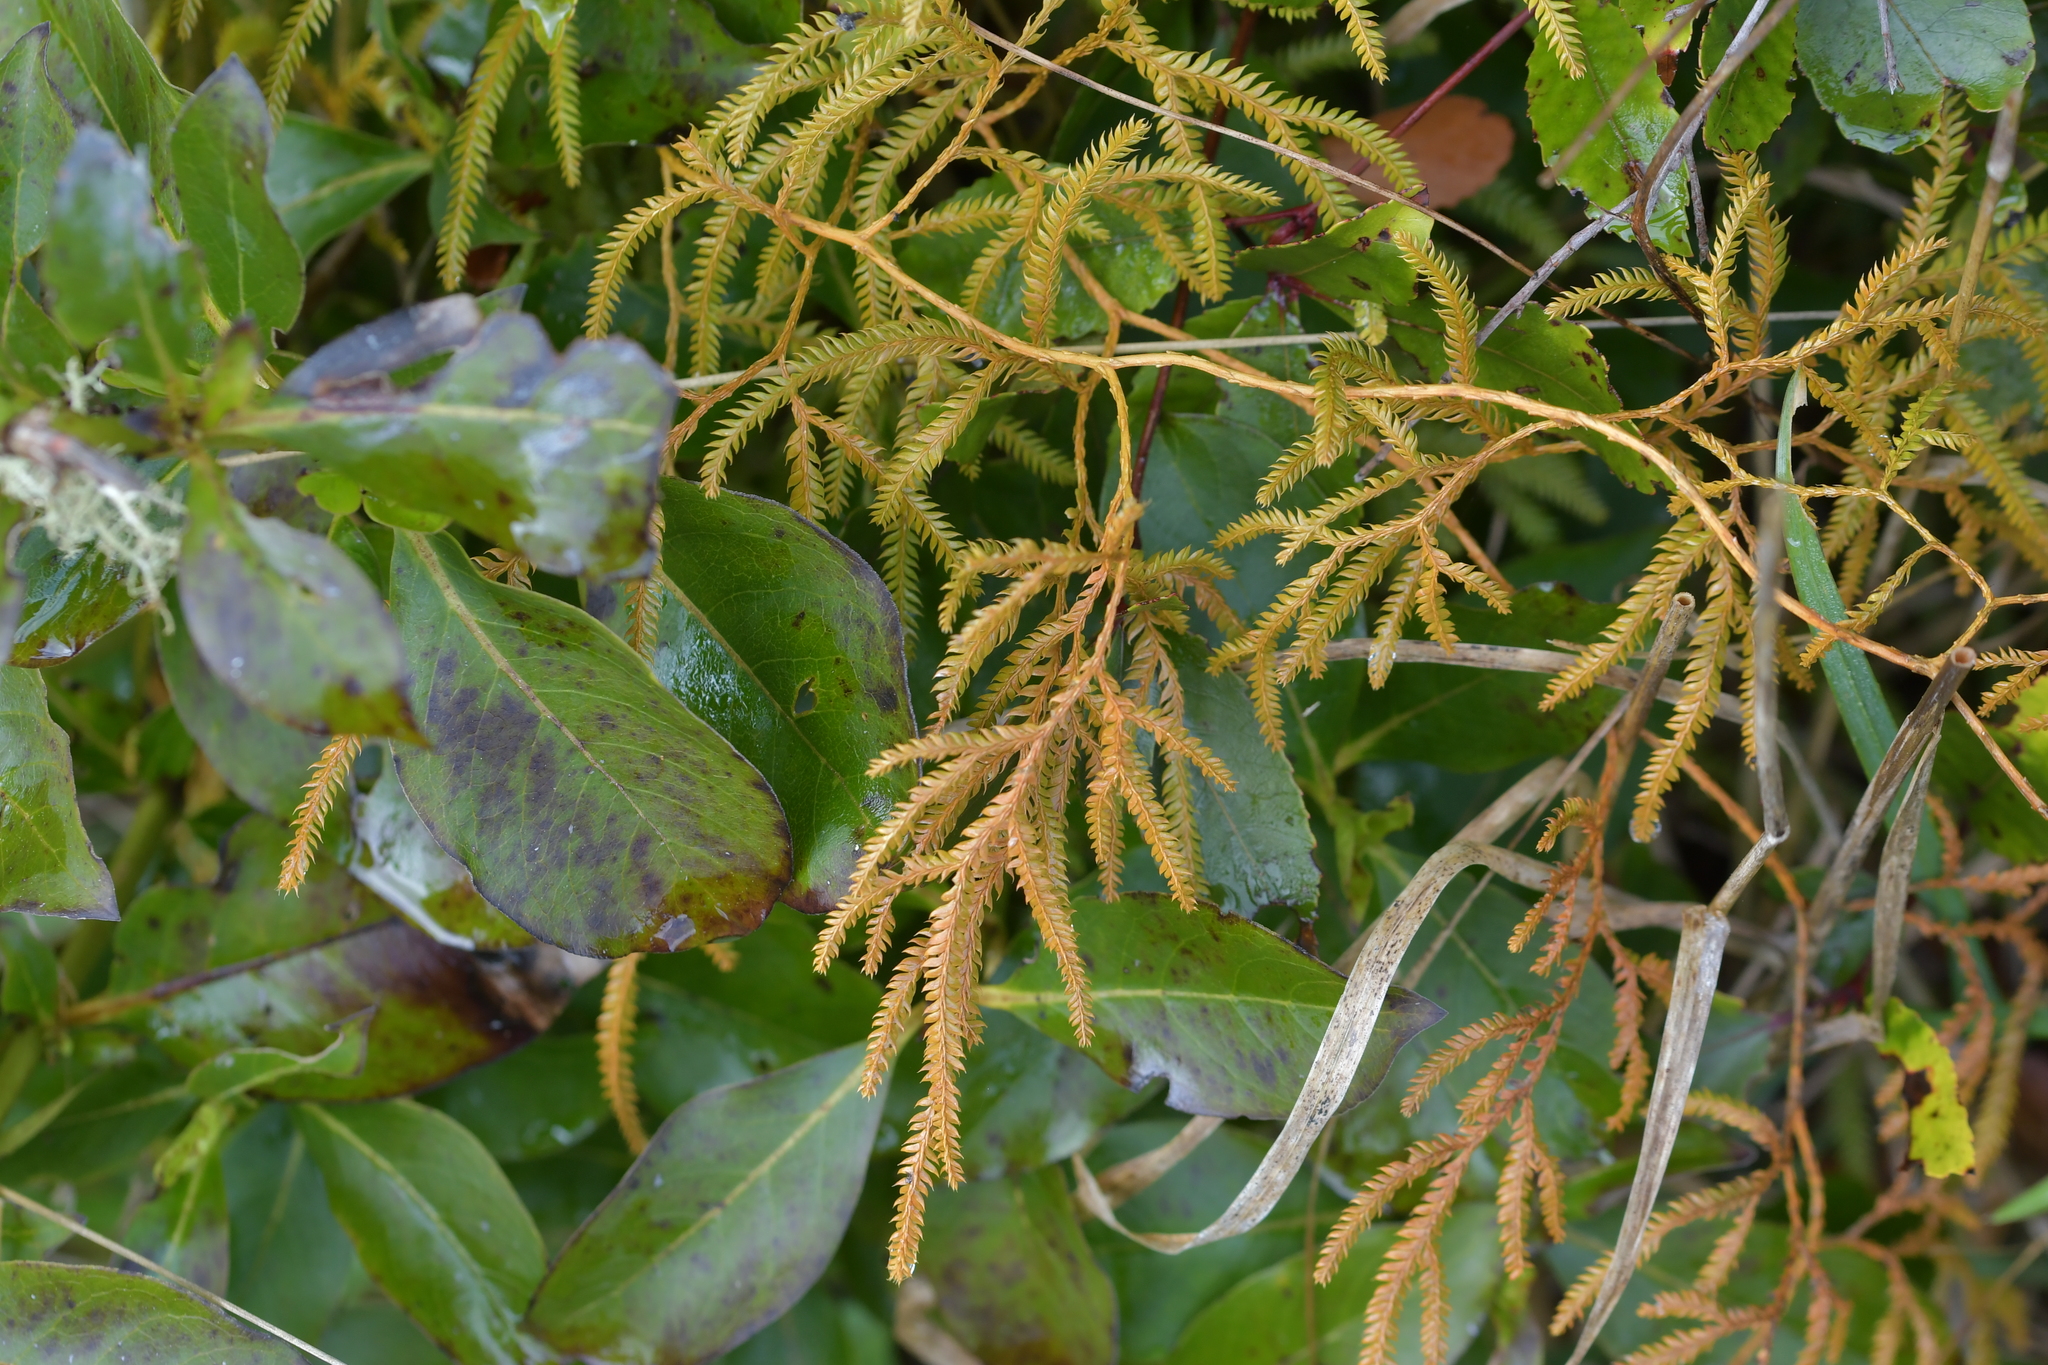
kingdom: Plantae
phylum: Tracheophyta
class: Lycopodiopsida
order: Lycopodiales
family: Lycopodiaceae
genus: Lycopodium
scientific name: Lycopodium volubile
